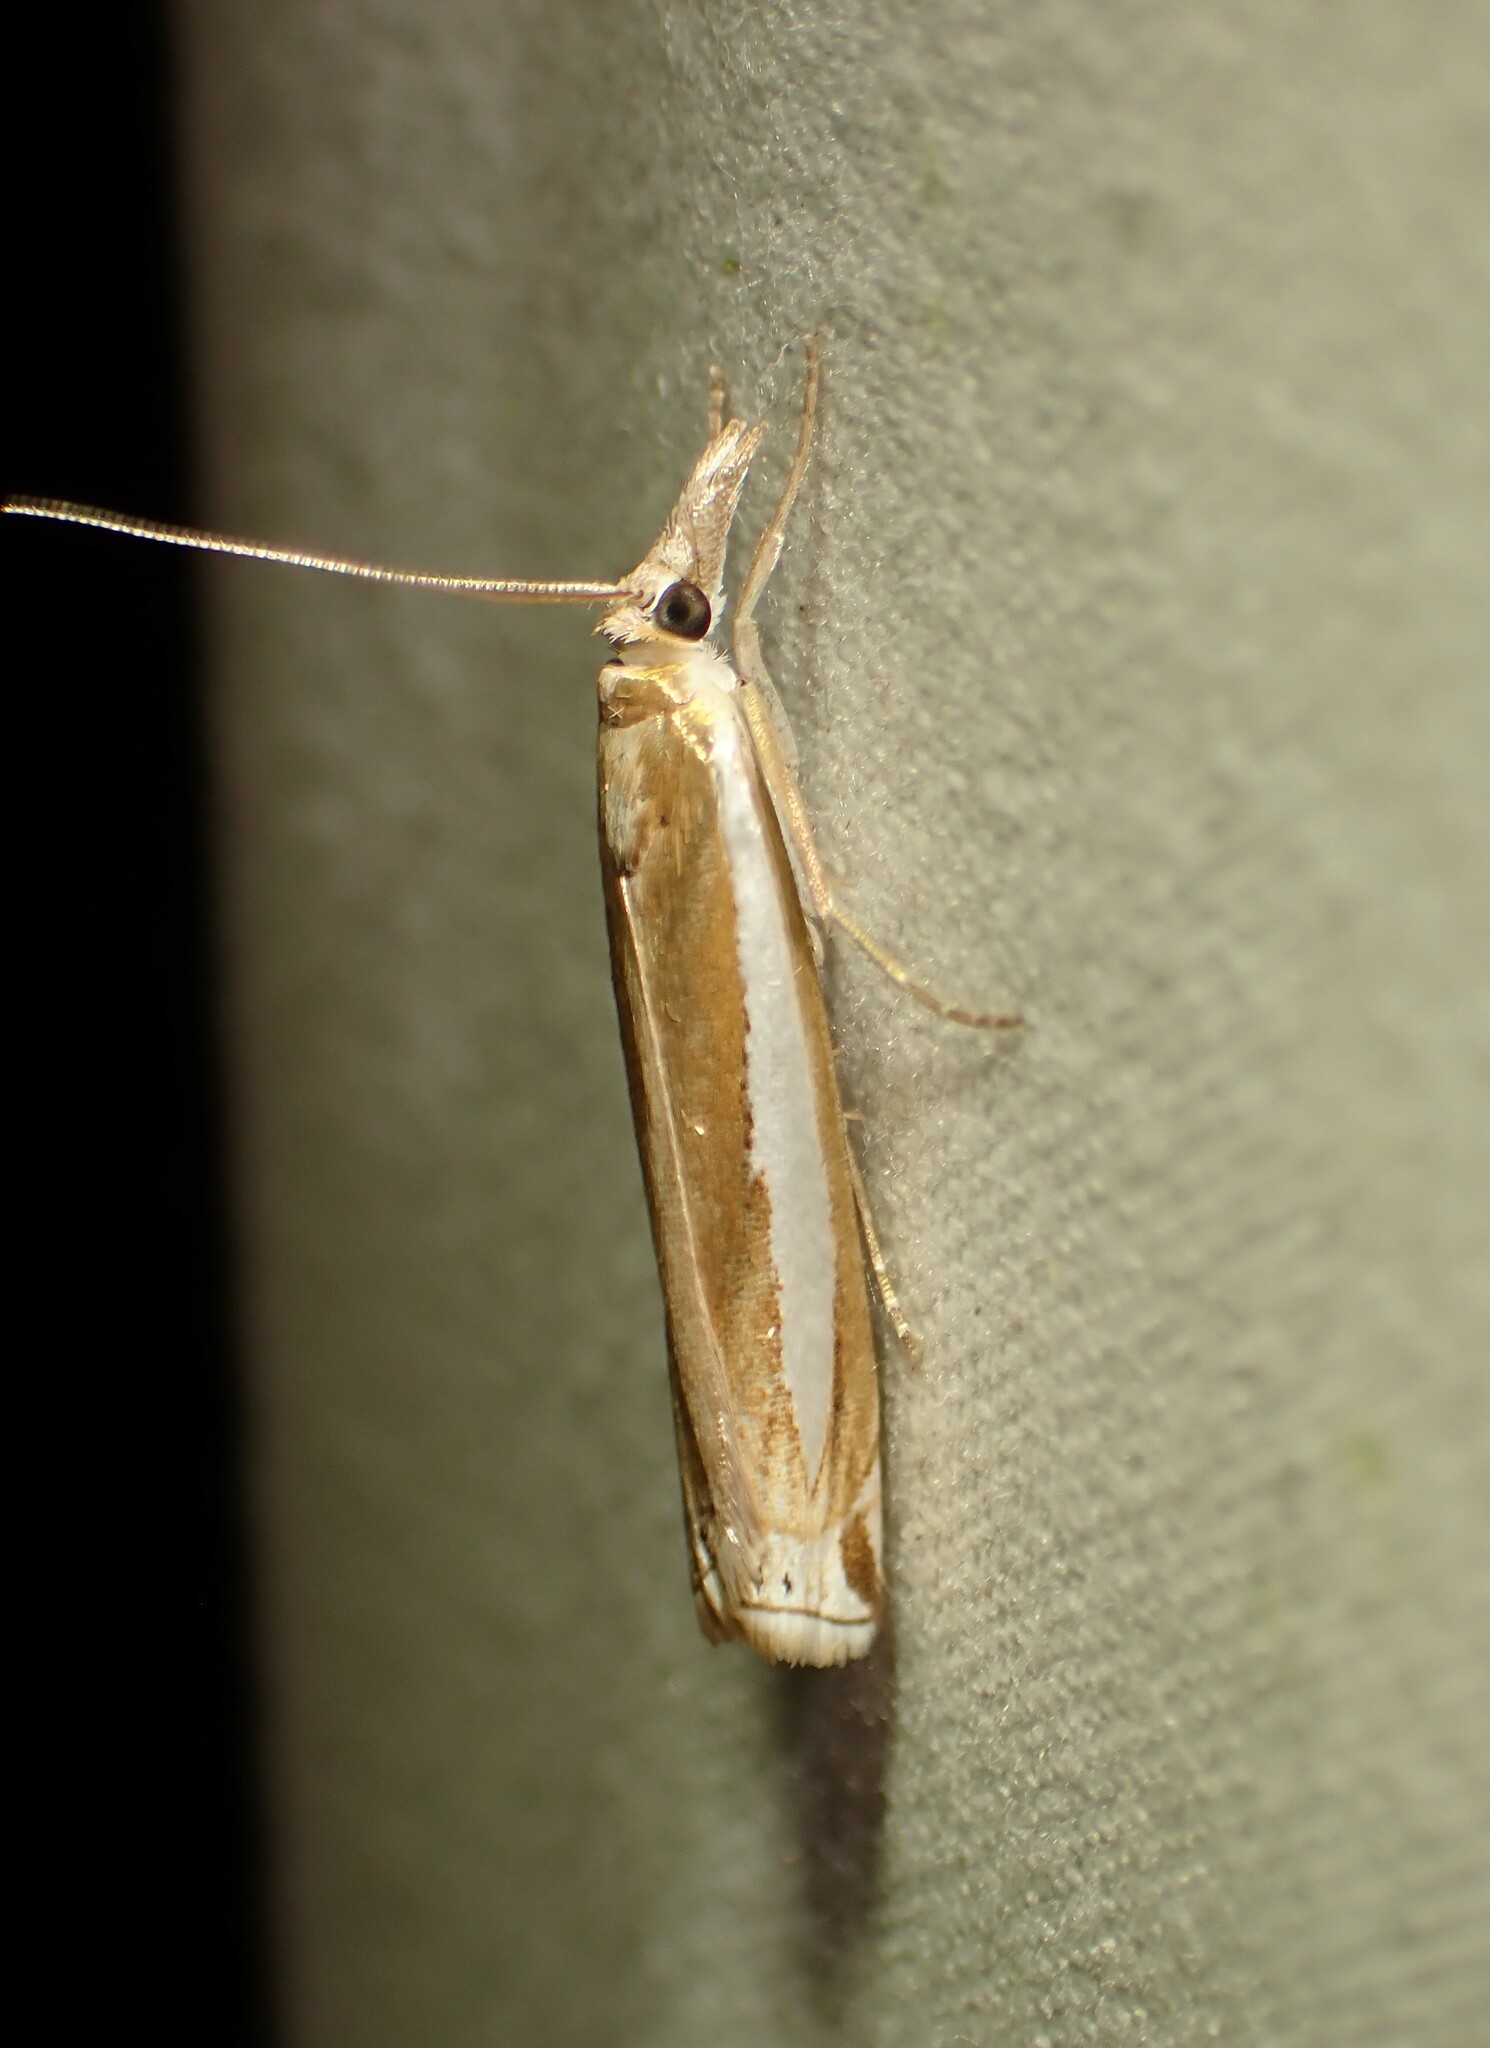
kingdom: Animalia
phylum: Arthropoda
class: Insecta
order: Lepidoptera
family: Crambidae
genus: Crambus
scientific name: Crambus praefectellus
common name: Common grass-veneer
